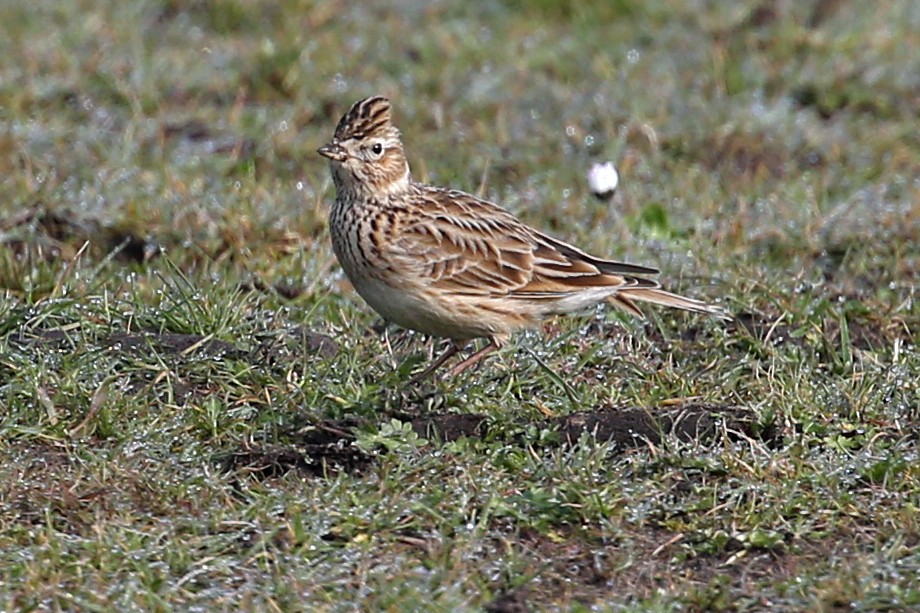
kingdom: Animalia
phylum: Chordata
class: Aves
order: Passeriformes
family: Alaudidae
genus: Alauda
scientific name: Alauda arvensis
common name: Eurasian skylark
